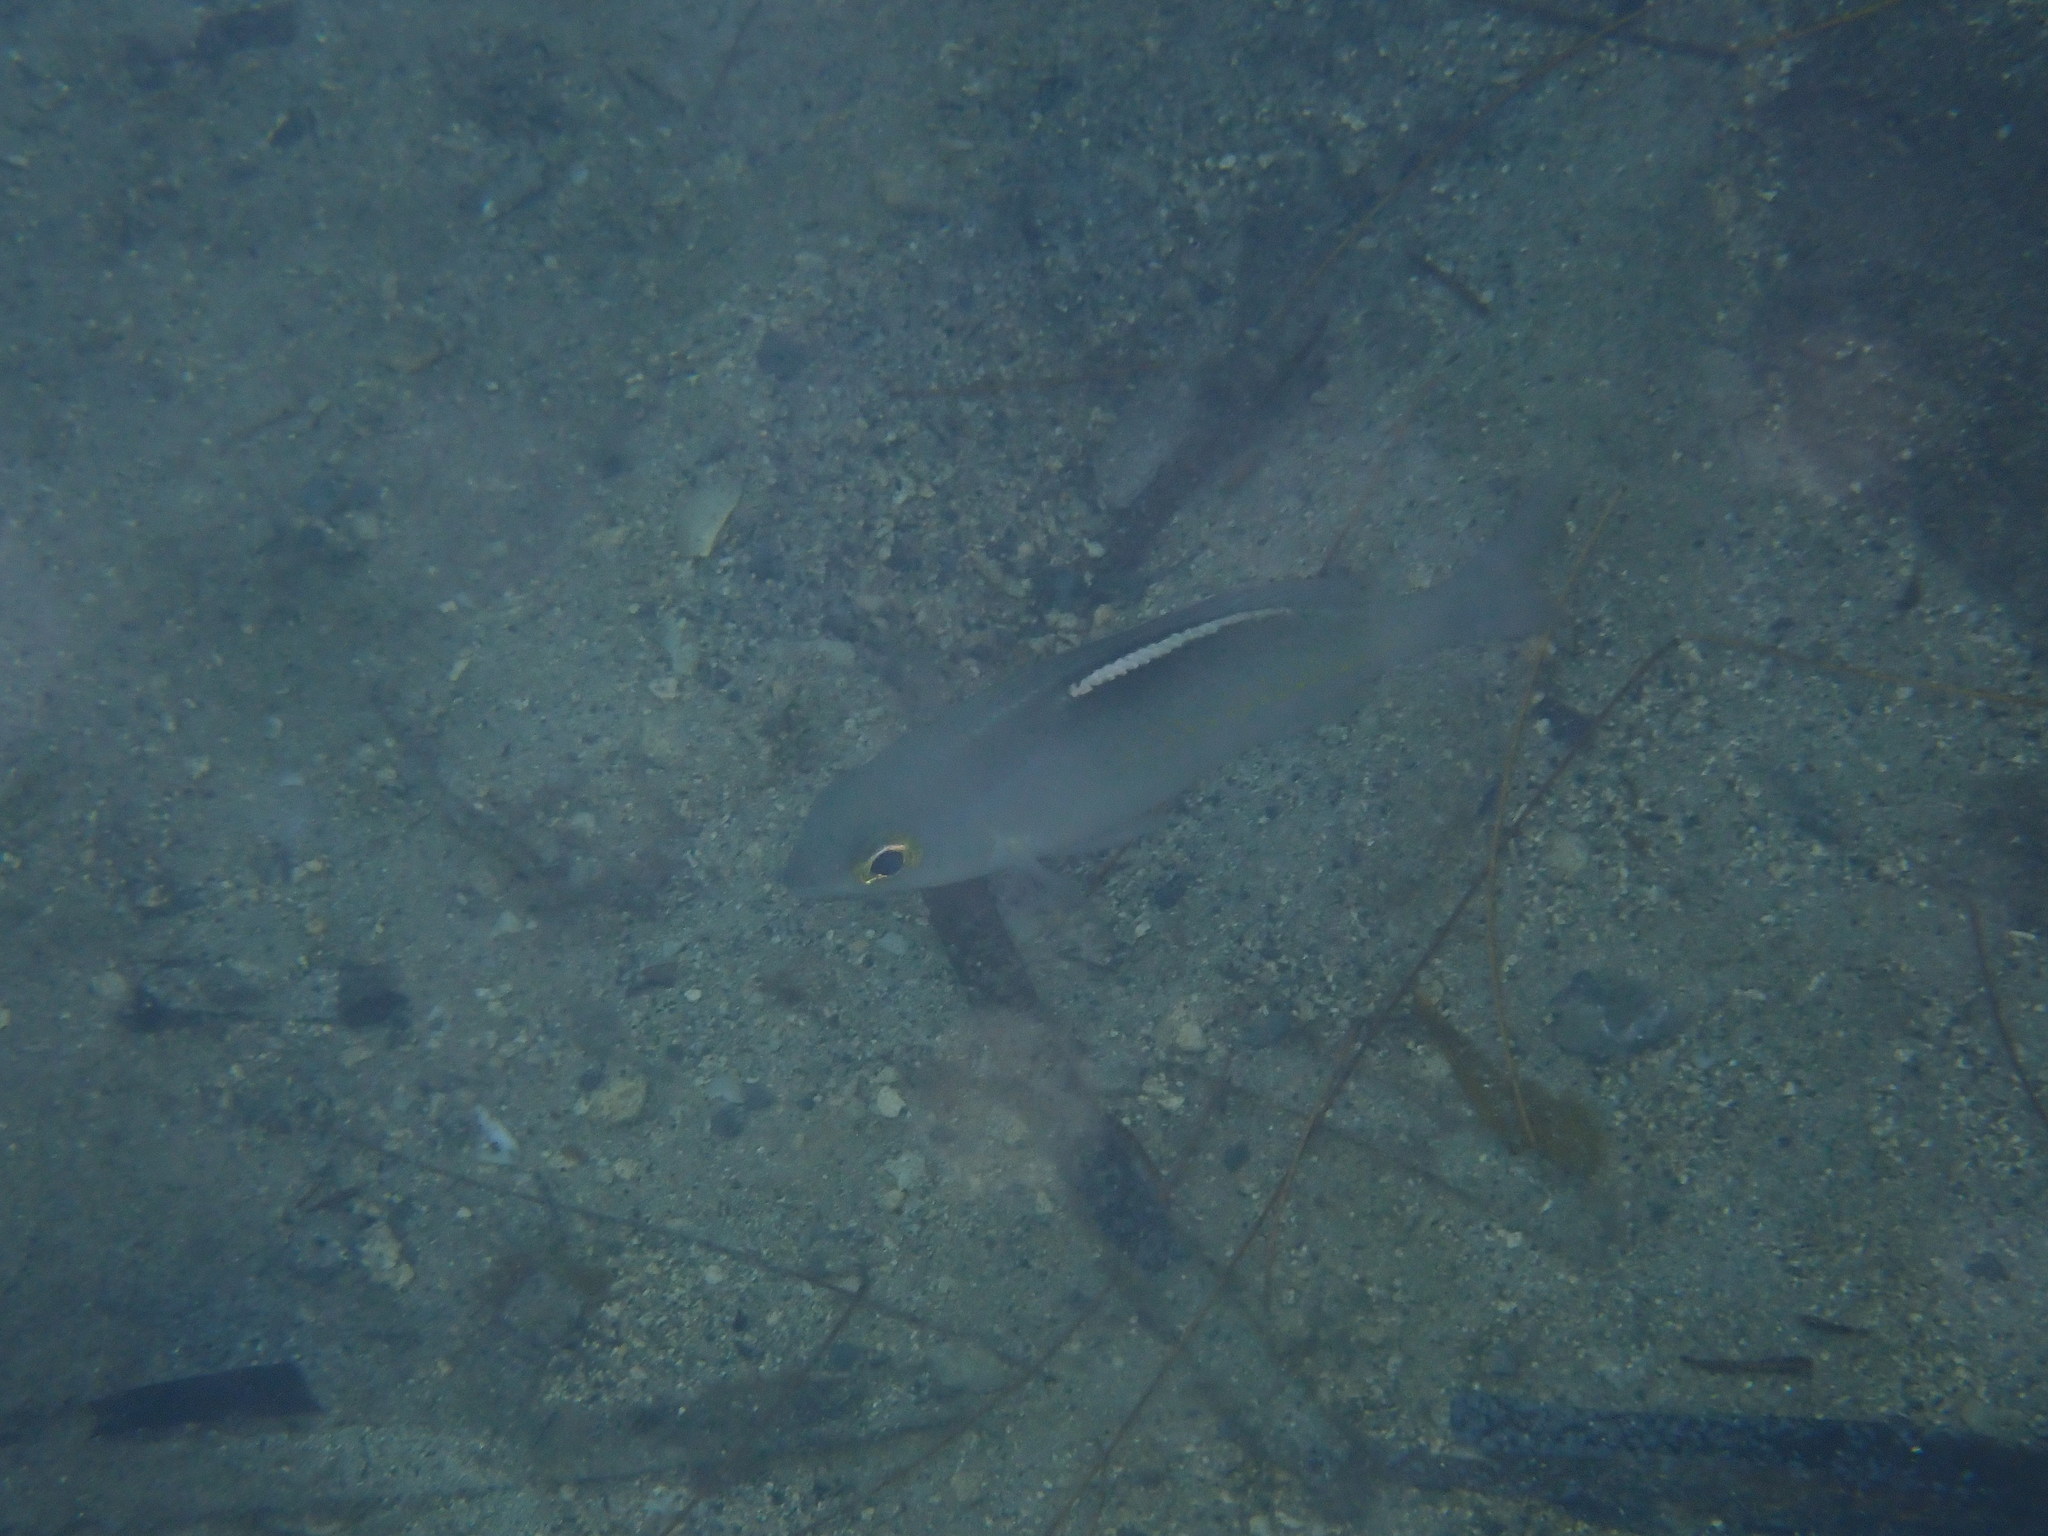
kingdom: Animalia
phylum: Chordata
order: Perciformes
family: Nemipteridae
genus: Scolopsis
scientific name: Scolopsis ciliata
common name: Ciliate spinecheek
